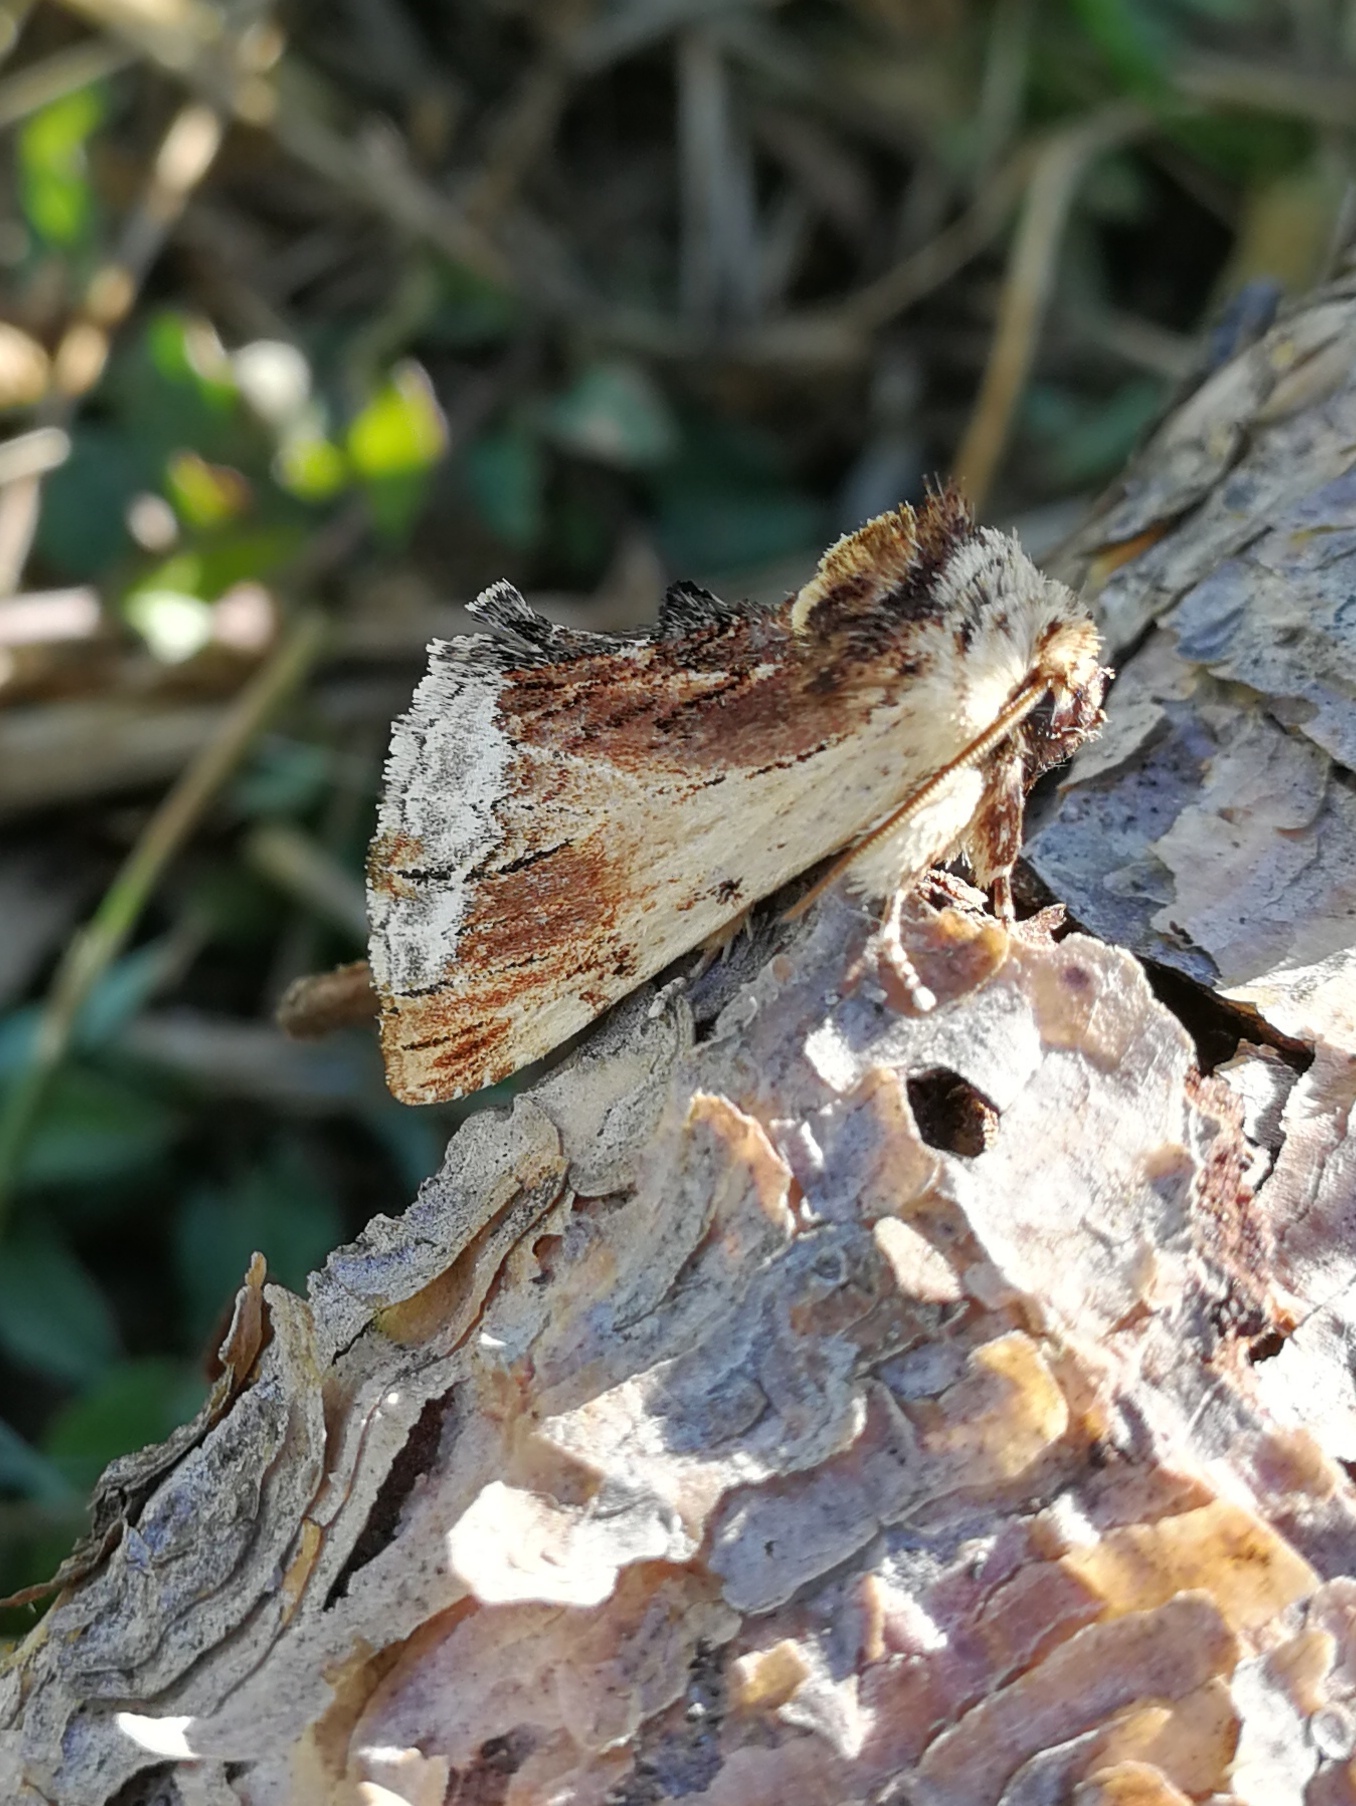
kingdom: Animalia
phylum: Arthropoda
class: Insecta
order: Lepidoptera
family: Notodontidae
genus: Ptilodon
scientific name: Ptilodon cucullina
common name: Maple prominent
